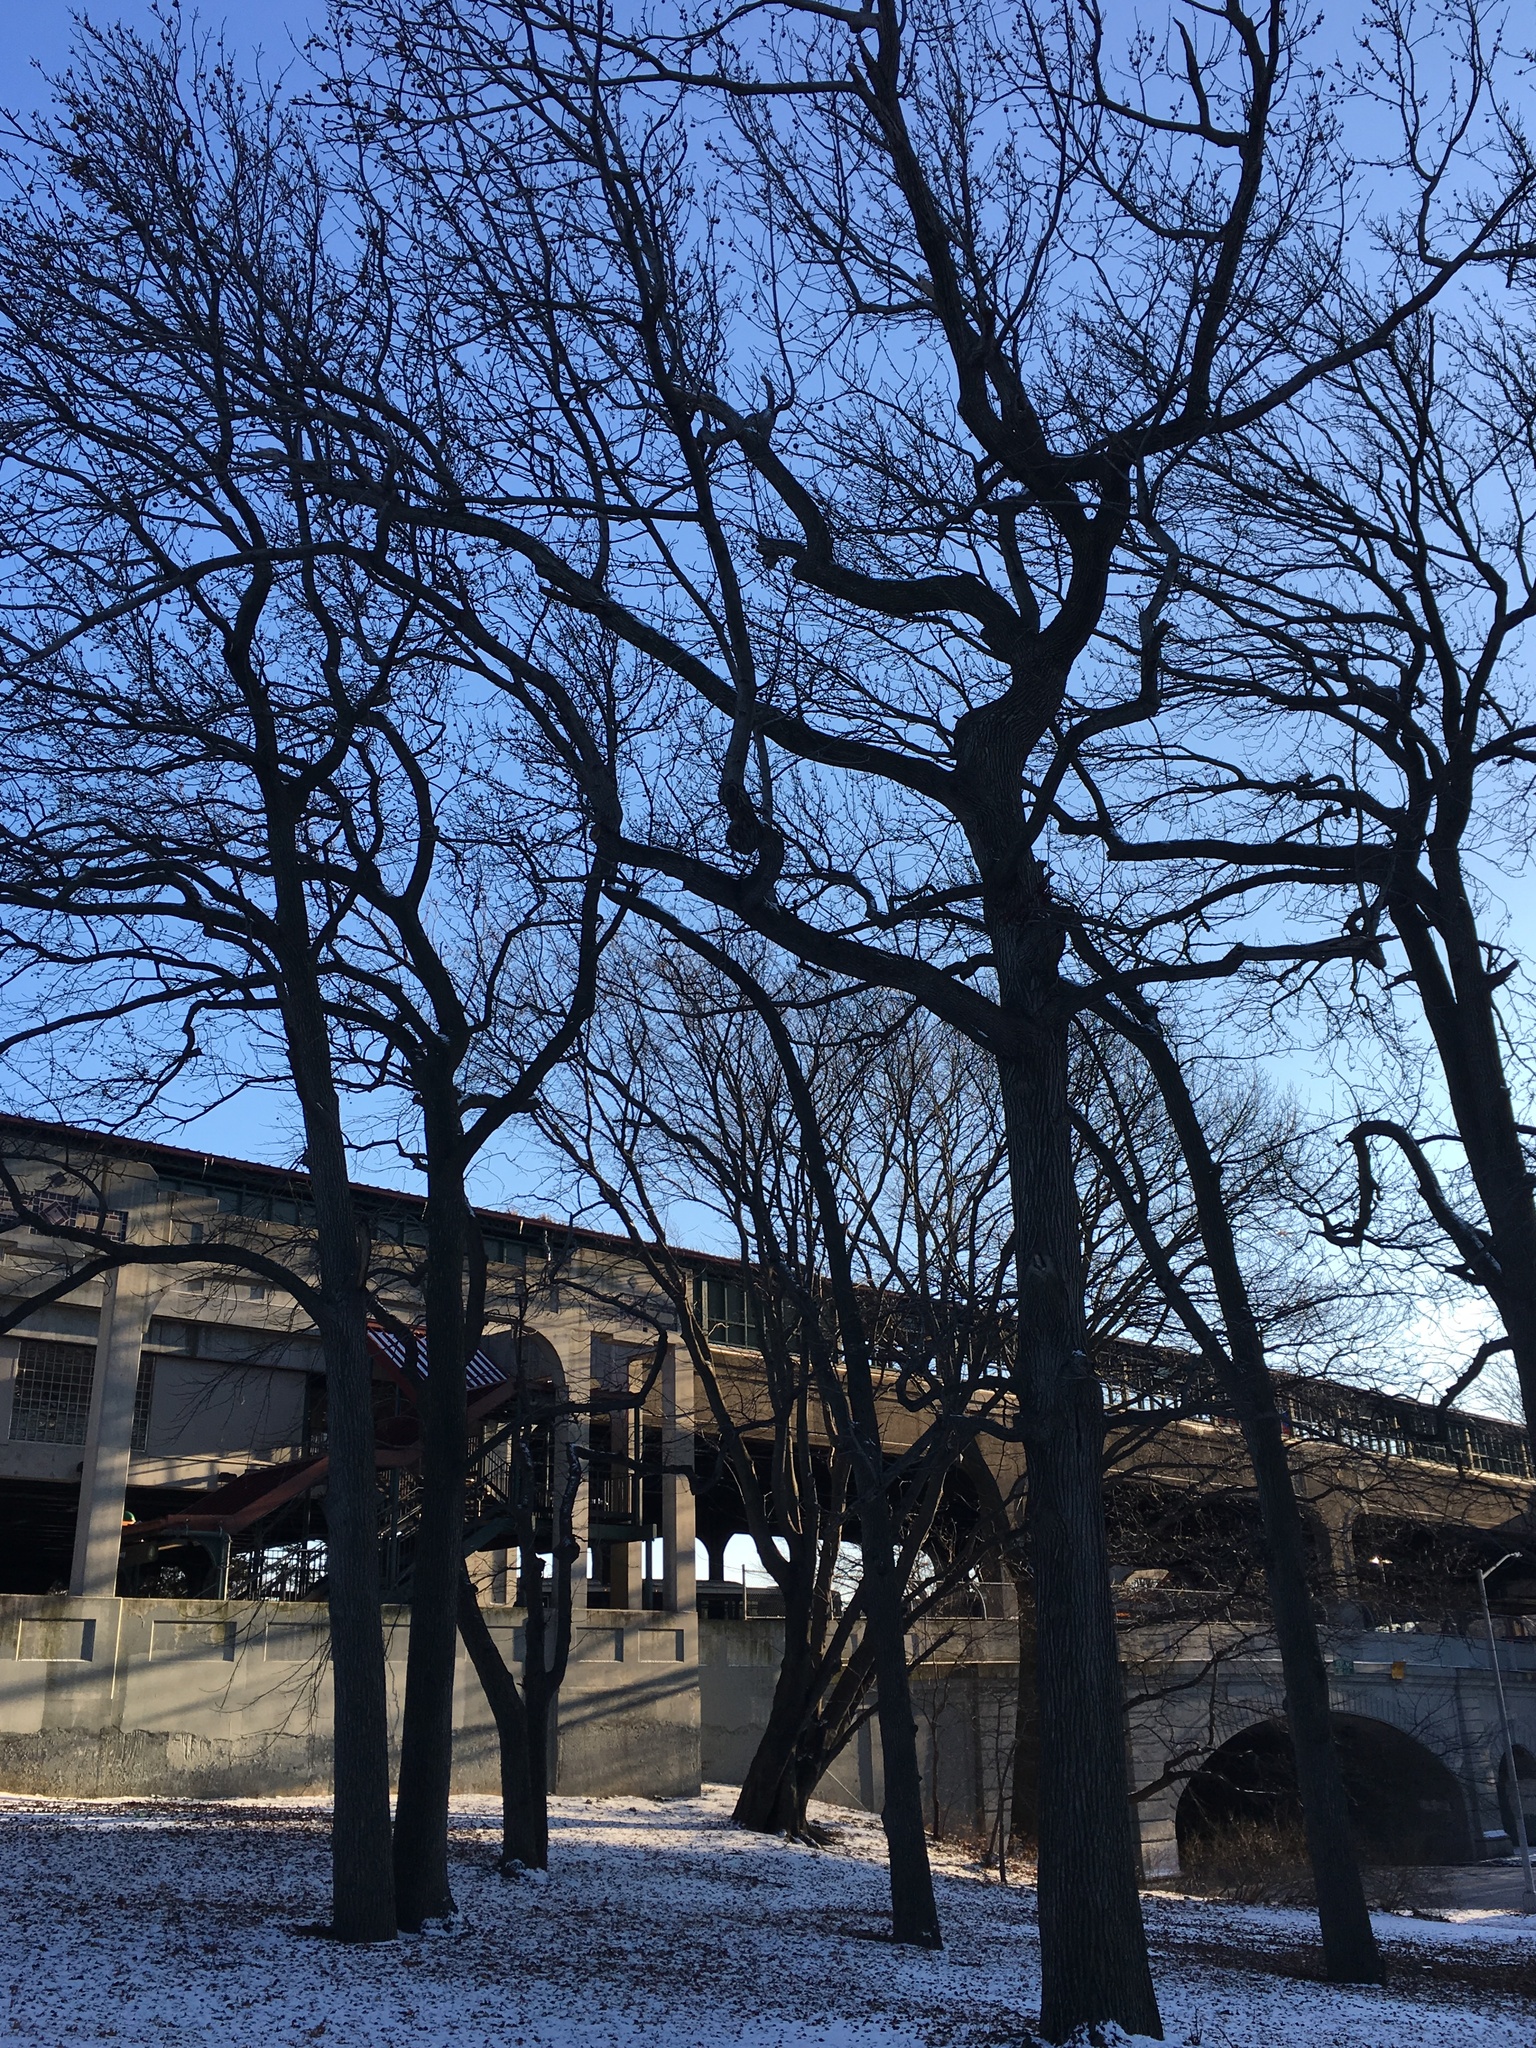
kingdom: Plantae
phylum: Tracheophyta
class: Magnoliopsida
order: Saxifragales
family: Altingiaceae
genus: Liquidambar
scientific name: Liquidambar styraciflua
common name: Sweet gum
